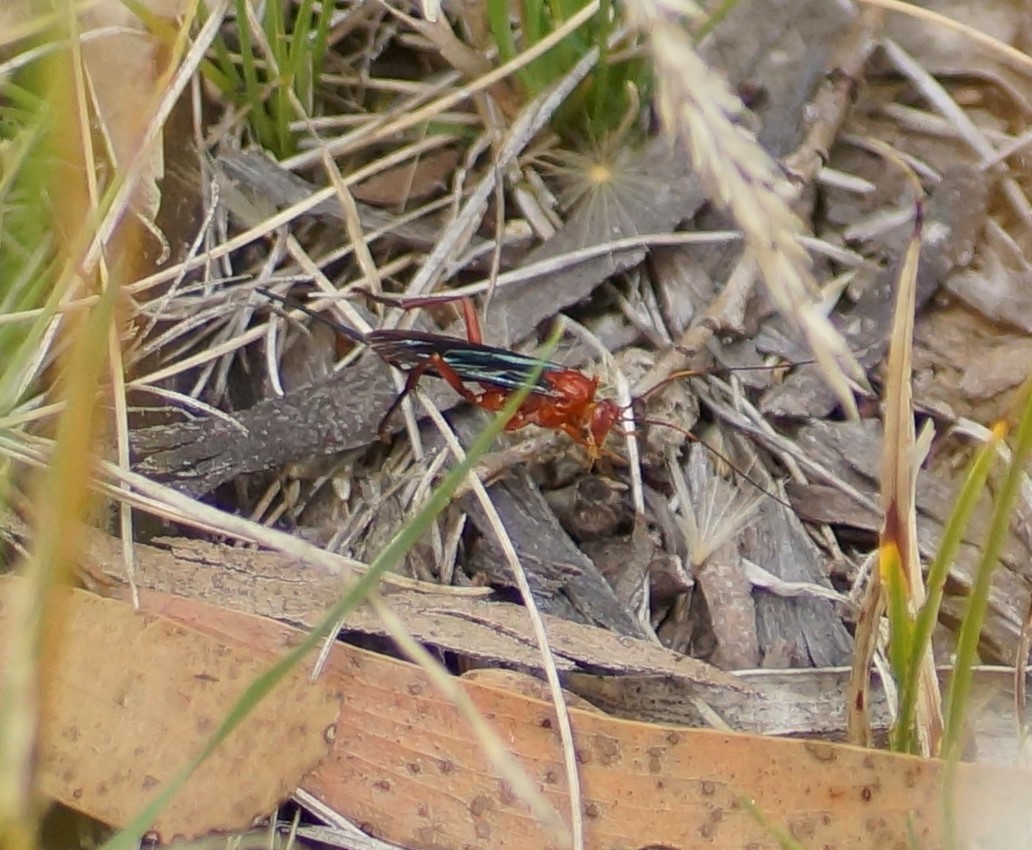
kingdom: Animalia
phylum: Arthropoda
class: Insecta
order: Hymenoptera
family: Ichneumonidae
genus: Lissopimpla
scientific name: Lissopimpla excelsa
